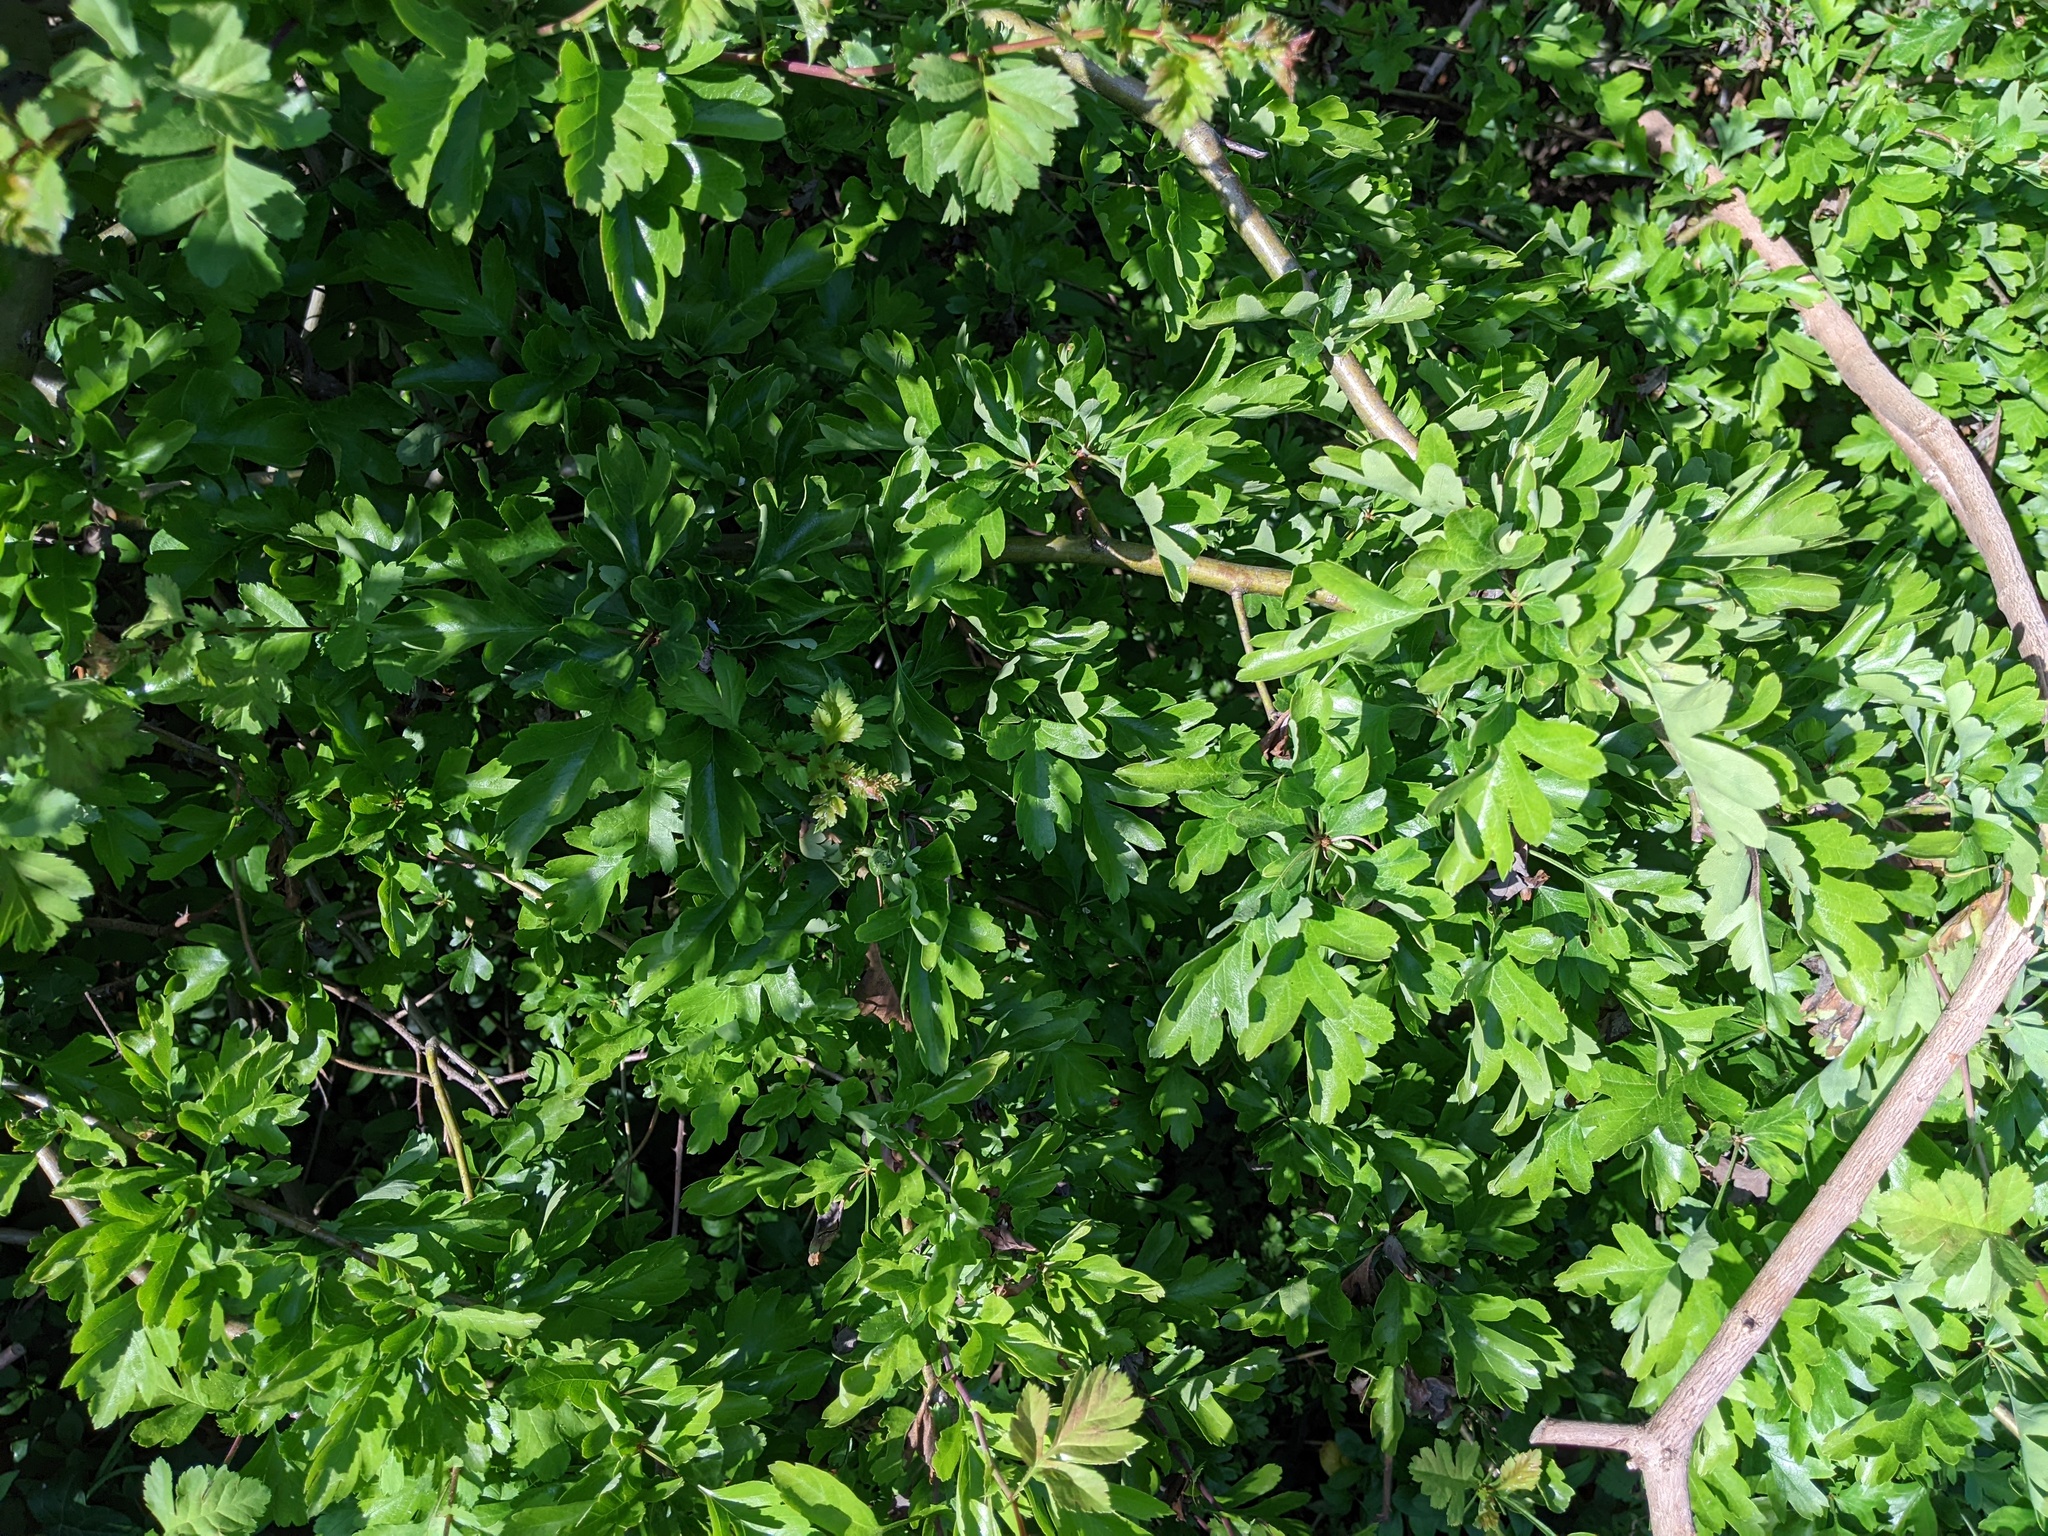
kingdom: Plantae
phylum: Tracheophyta
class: Magnoliopsida
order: Rosales
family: Rosaceae
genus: Crataegus
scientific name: Crataegus monogyna
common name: Hawthorn
